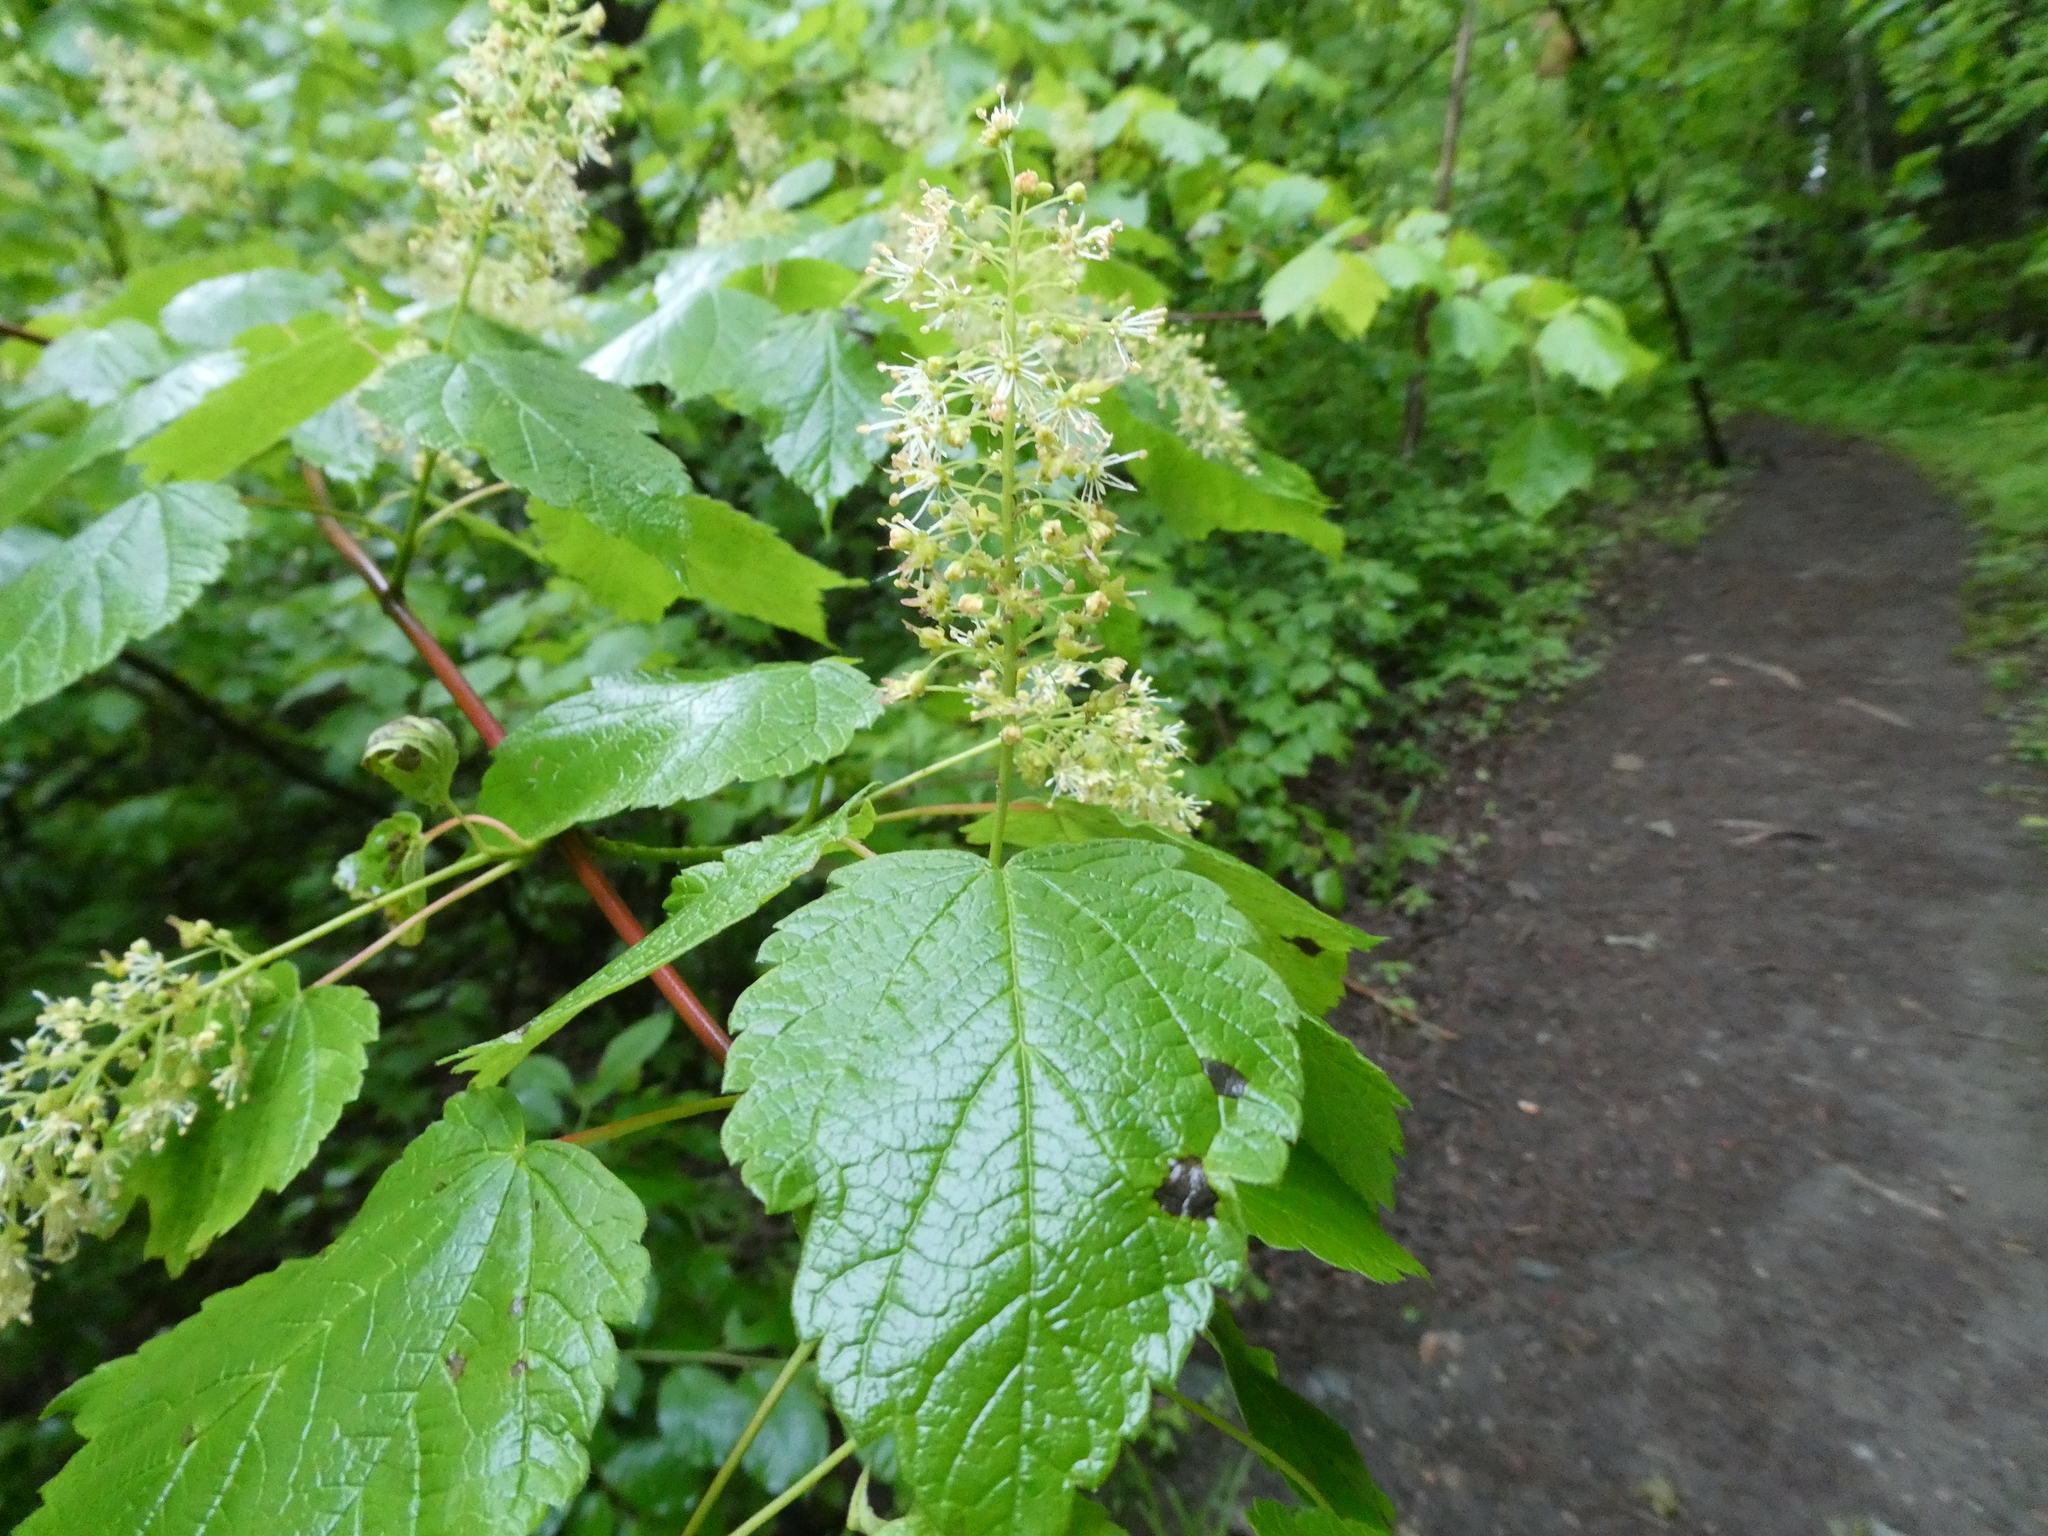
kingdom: Plantae
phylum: Tracheophyta
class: Magnoliopsida
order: Sapindales
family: Sapindaceae
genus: Acer
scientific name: Acer spicatum
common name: Mountain maple
